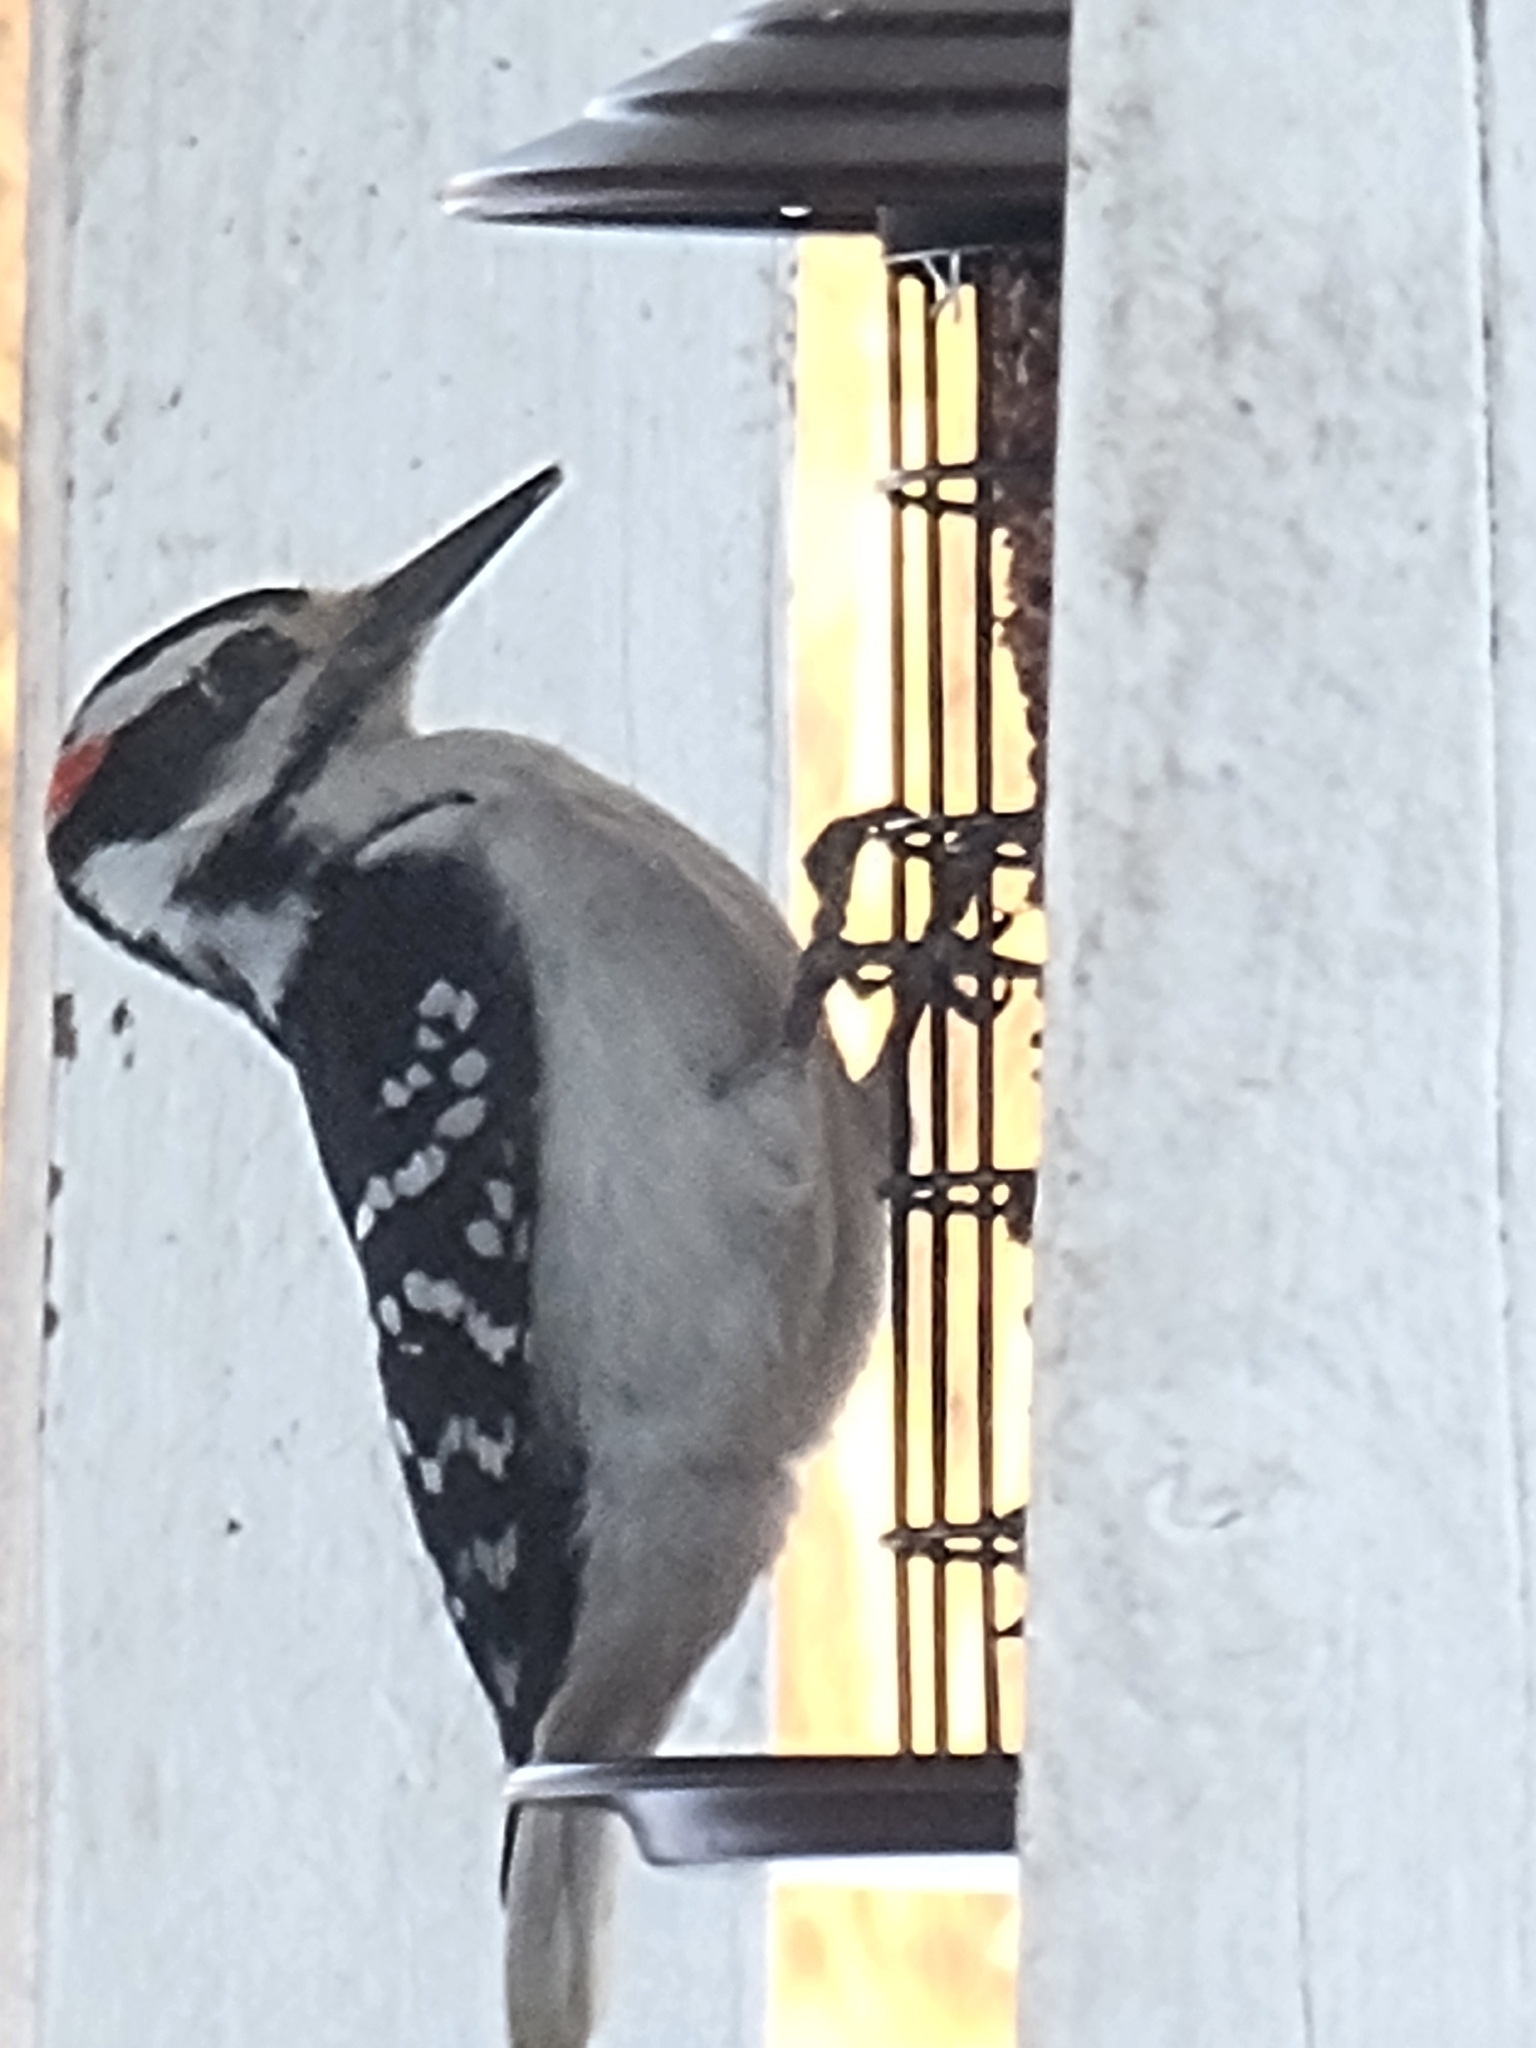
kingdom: Animalia
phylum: Chordata
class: Aves
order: Piciformes
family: Picidae
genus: Leuconotopicus
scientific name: Leuconotopicus villosus
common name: Hairy woodpecker
